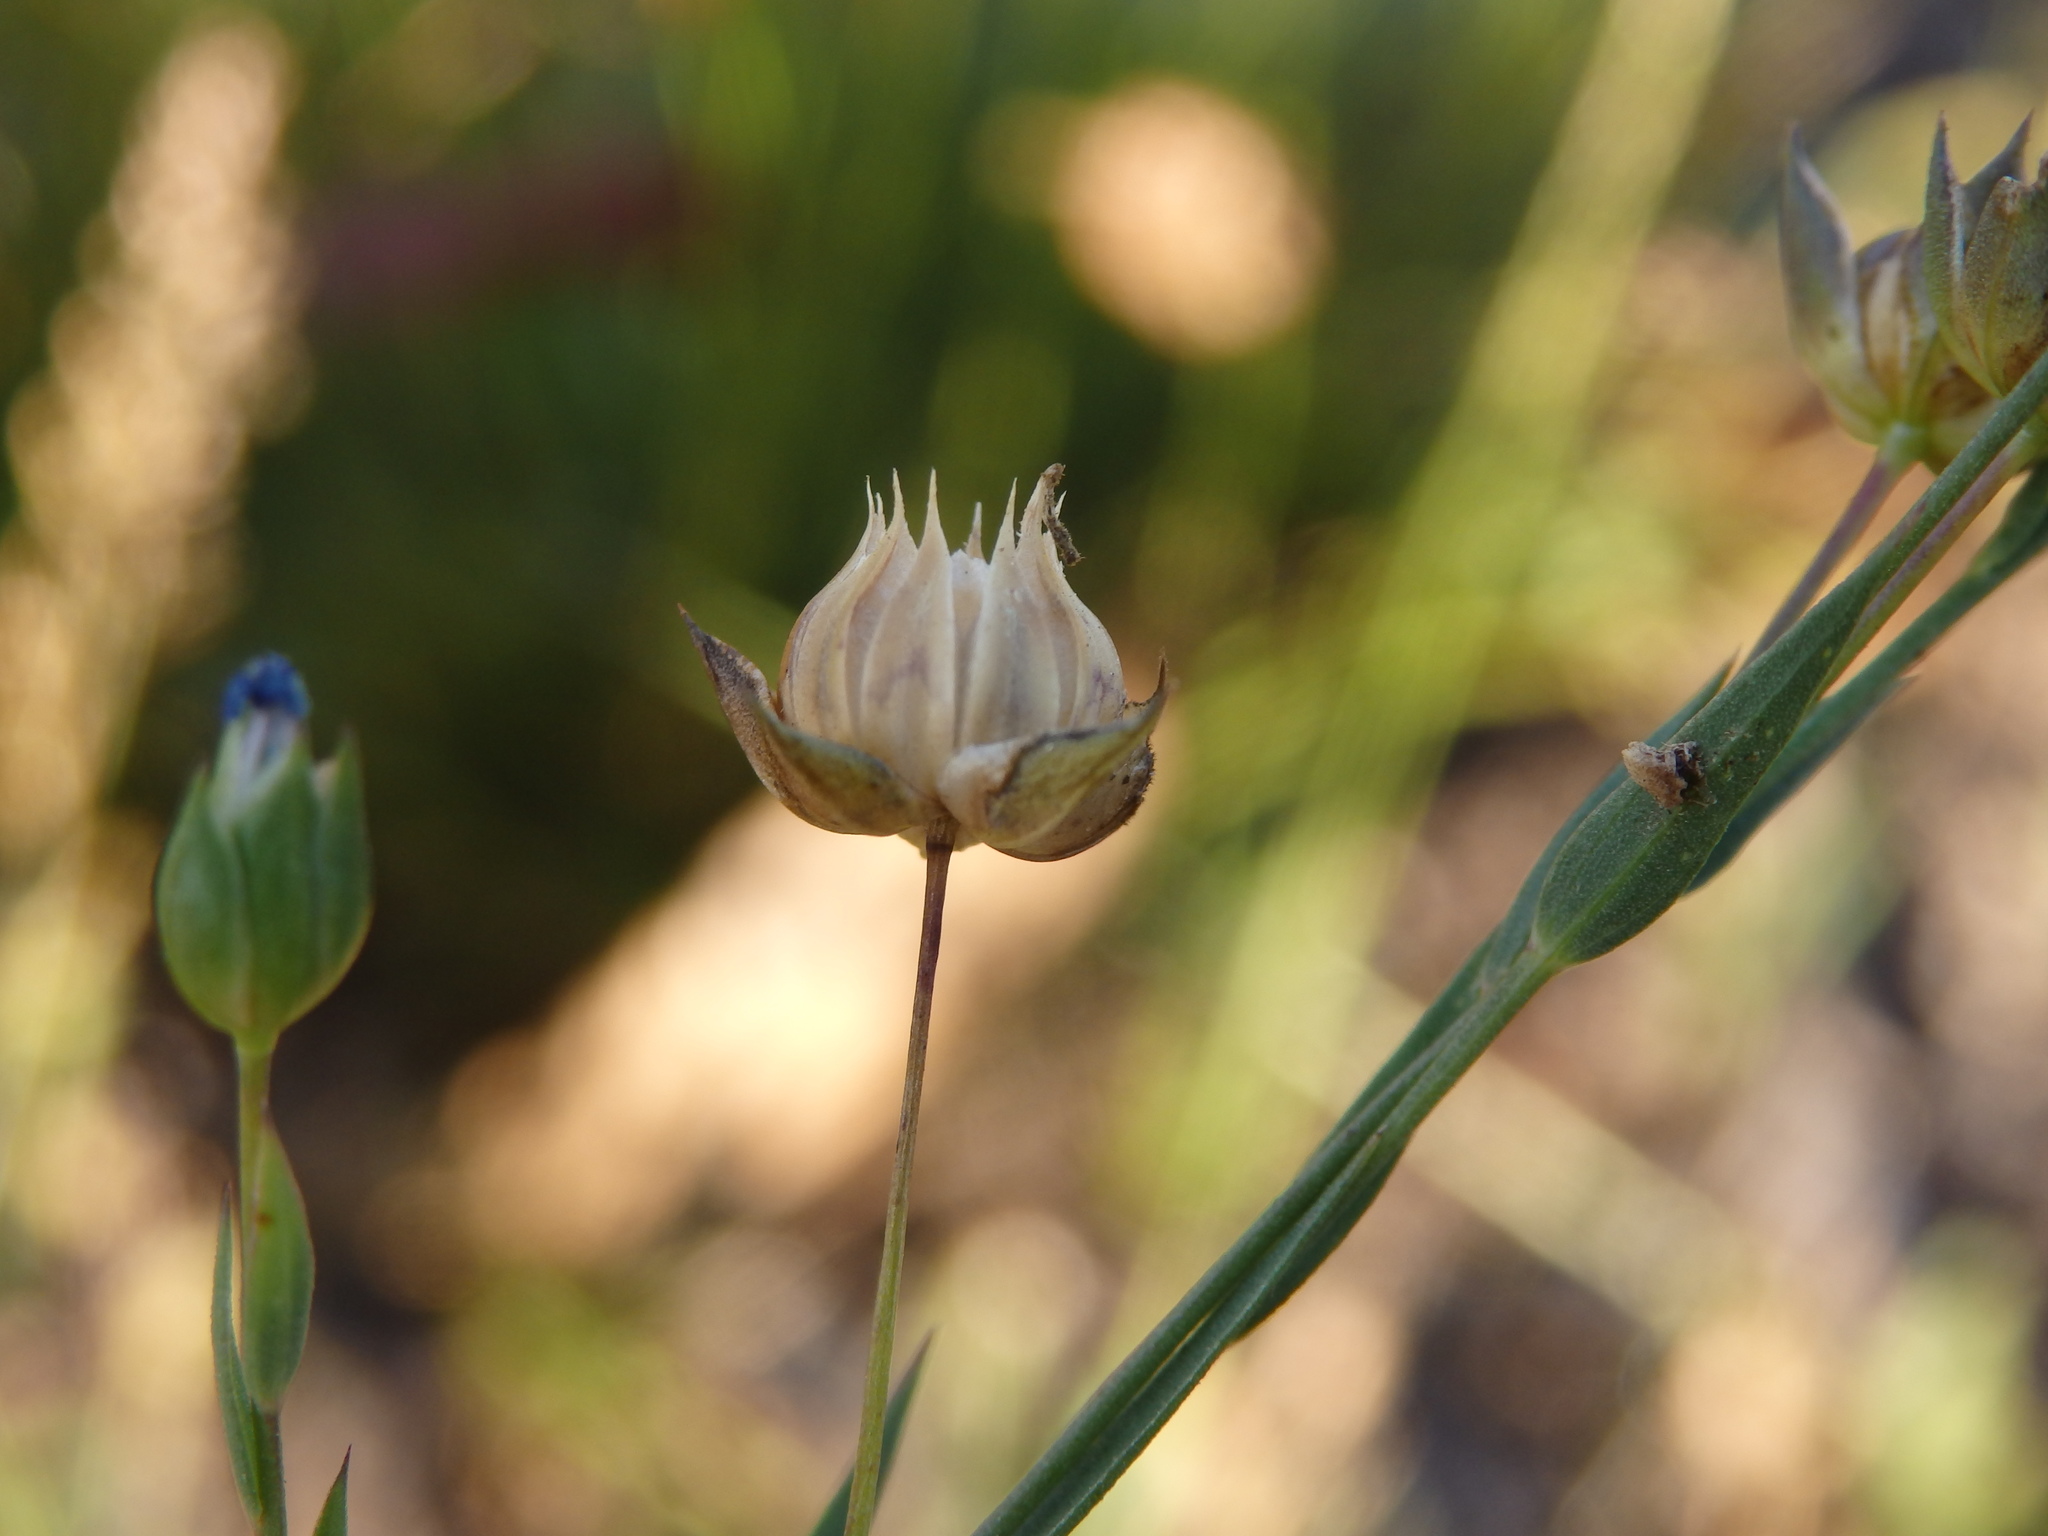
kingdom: Plantae
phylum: Tracheophyta
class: Magnoliopsida
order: Malpighiales
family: Linaceae
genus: Linum
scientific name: Linum bienne
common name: Pale flax
